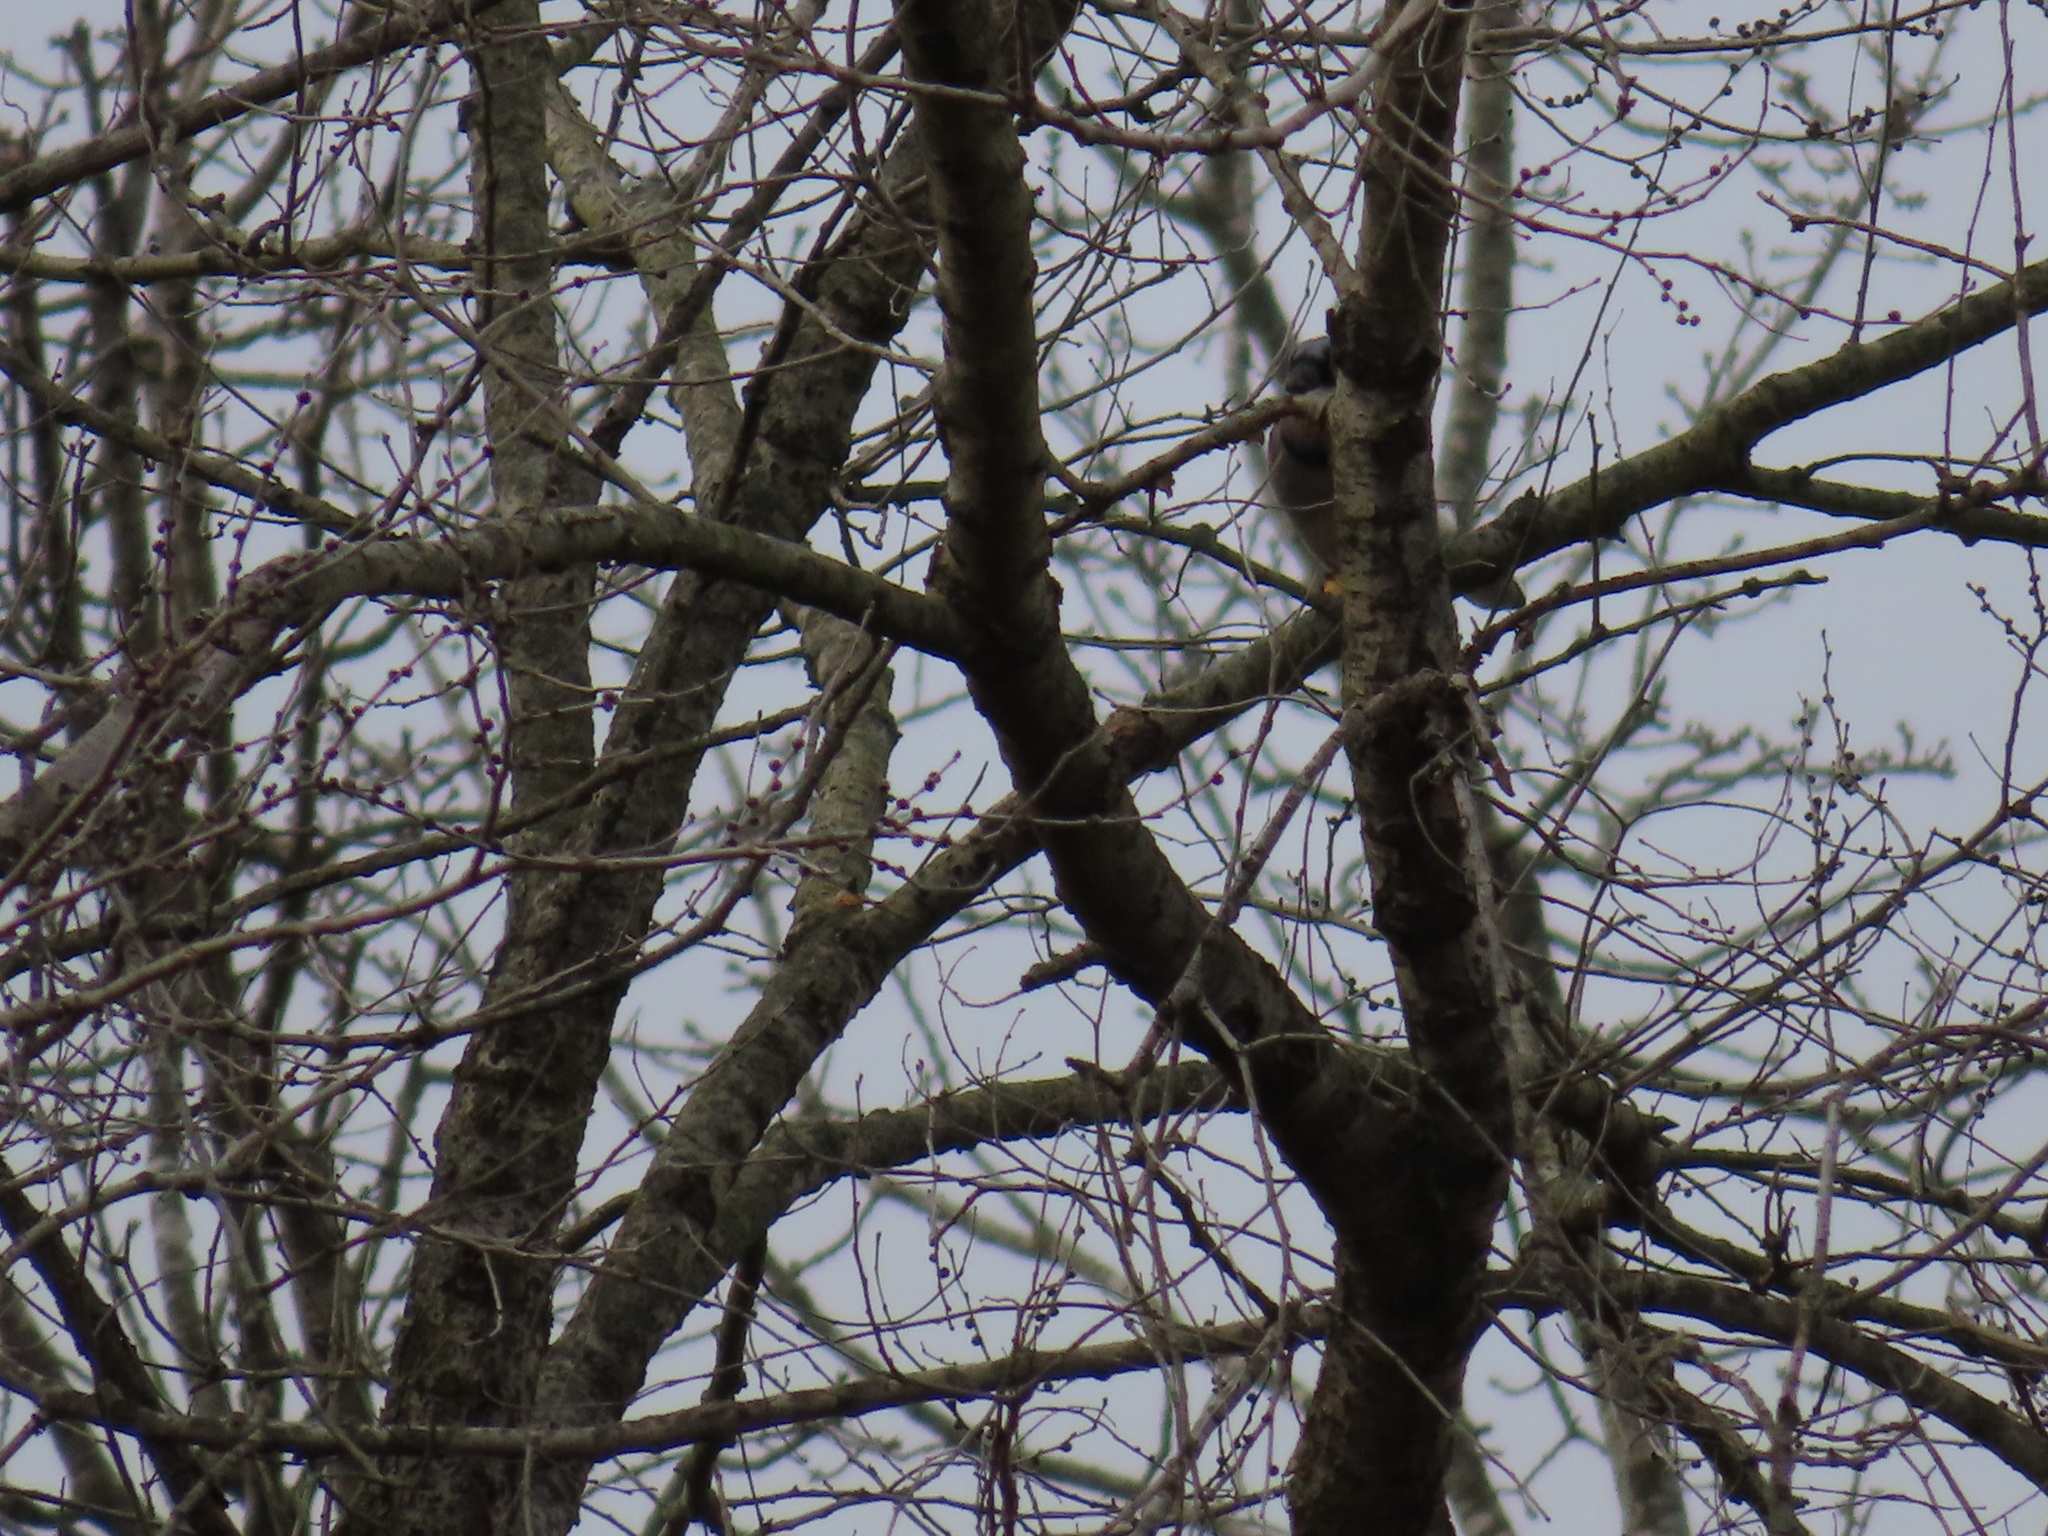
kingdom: Animalia
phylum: Chordata
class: Aves
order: Passeriformes
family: Corvidae
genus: Cyanocitta
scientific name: Cyanocitta cristata
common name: Blue jay
